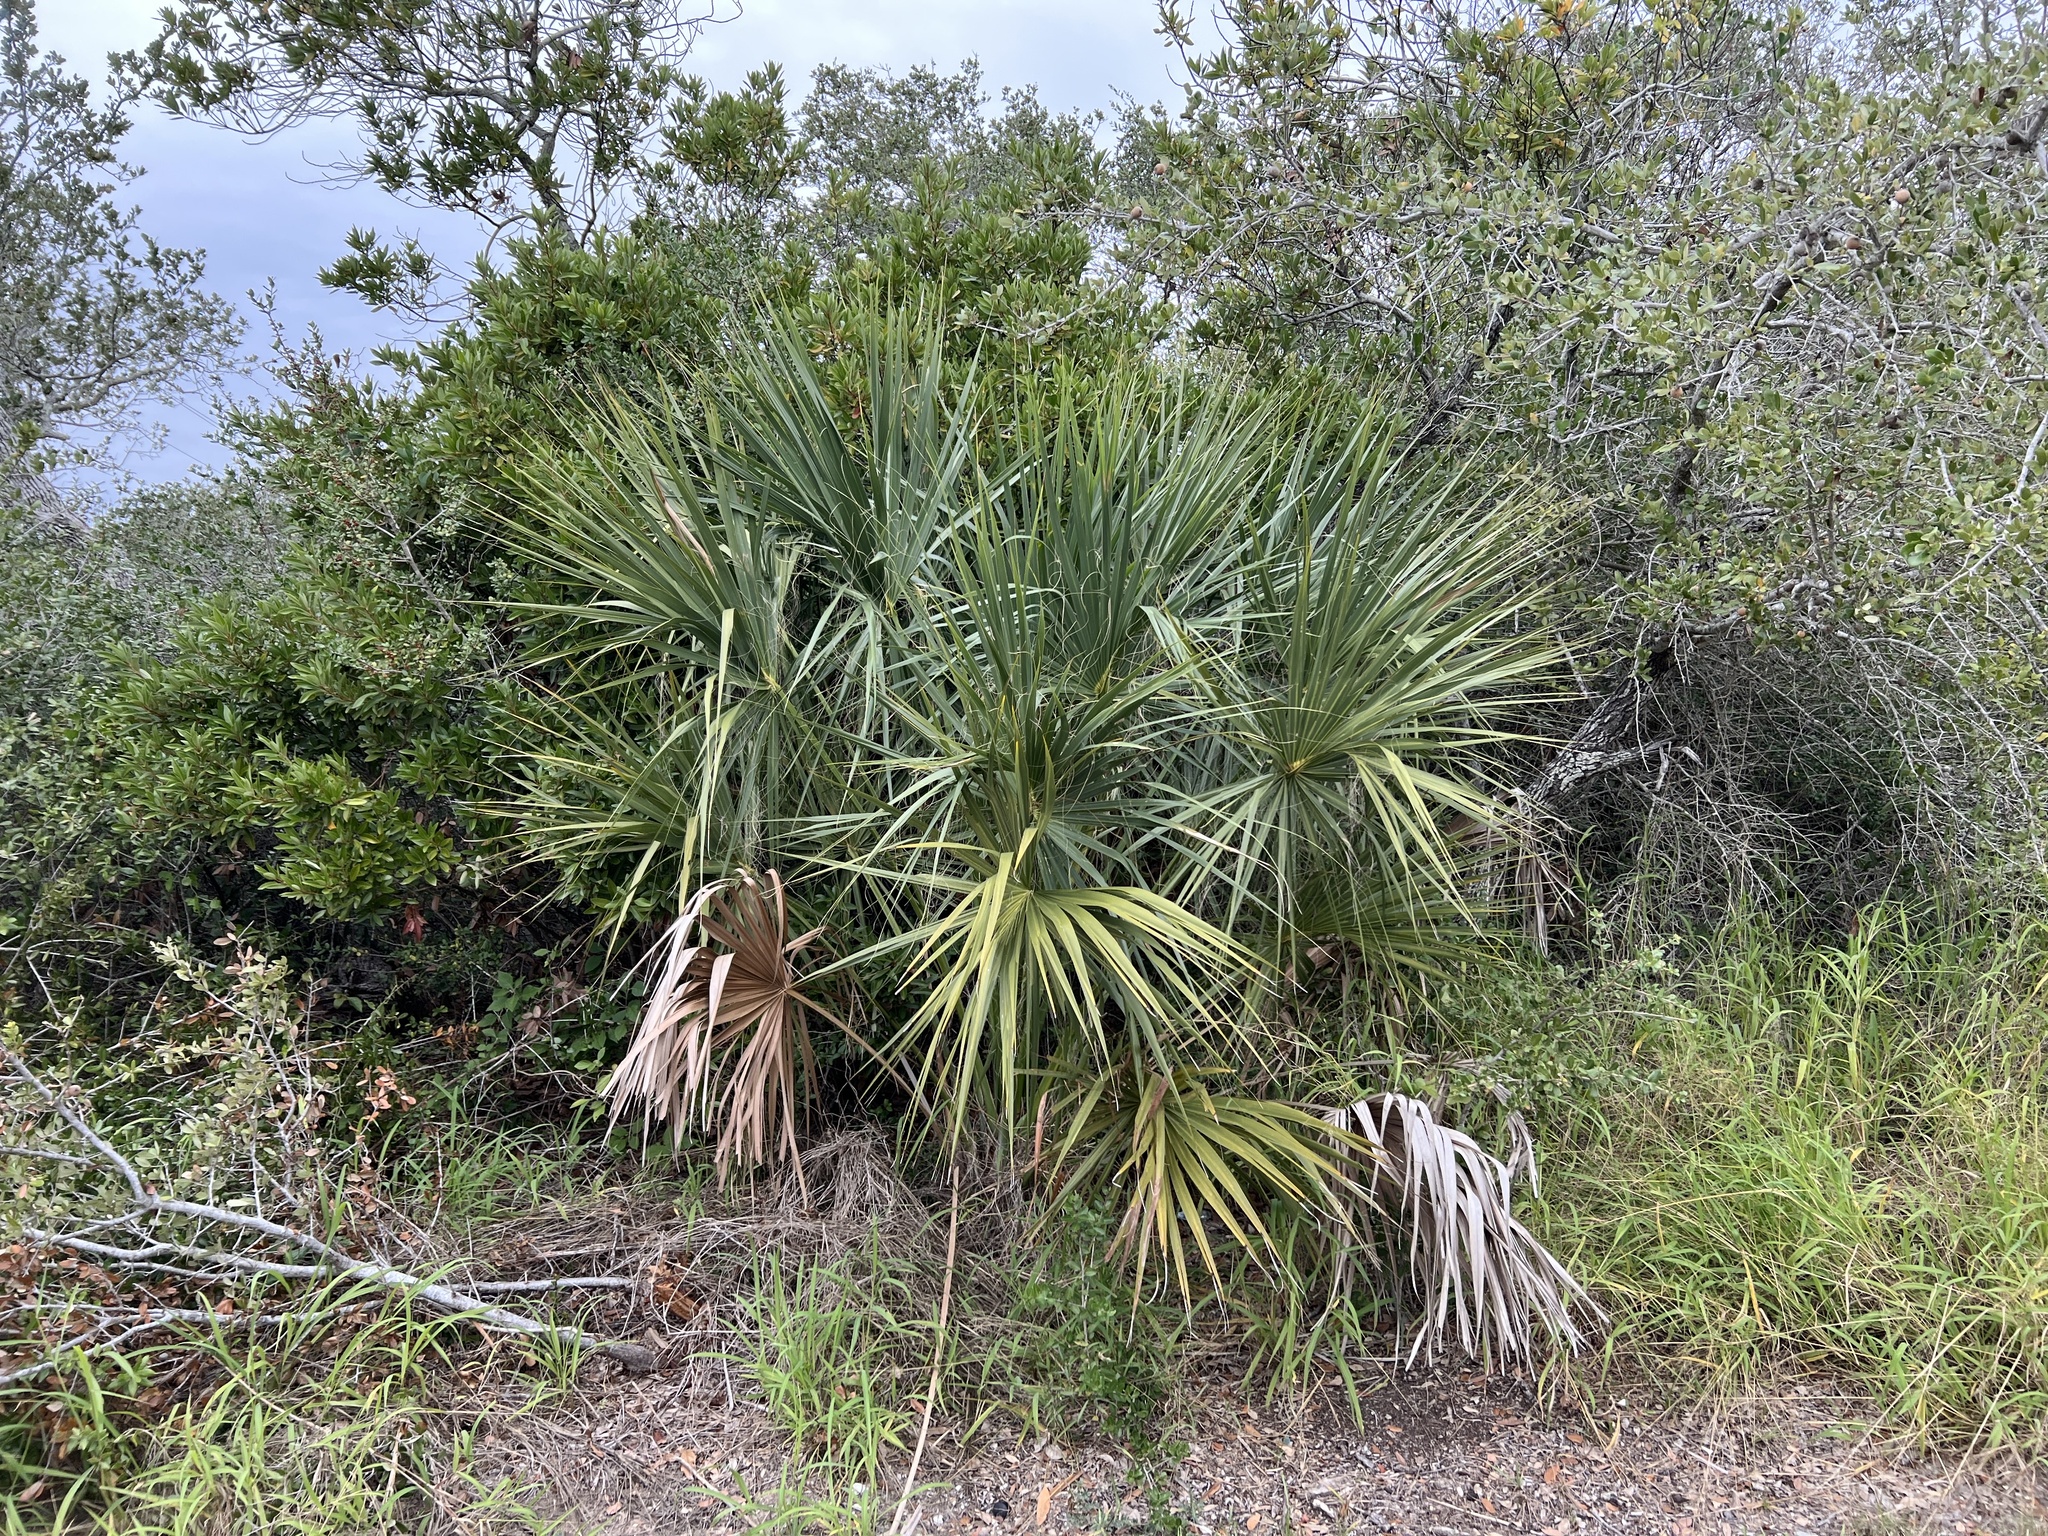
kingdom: Plantae
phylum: Tracheophyta
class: Liliopsida
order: Arecales
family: Arecaceae
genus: Sabal
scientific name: Sabal mexicana
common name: Texas palmetto
